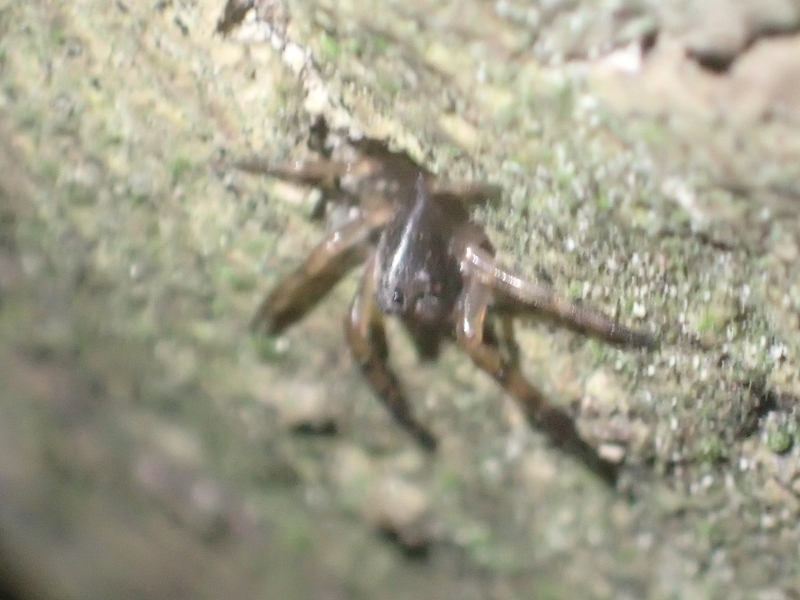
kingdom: Animalia
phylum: Arthropoda
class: Arachnida
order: Araneae
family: Cycloctenidae
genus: Plectophanes
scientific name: Plectophanes
